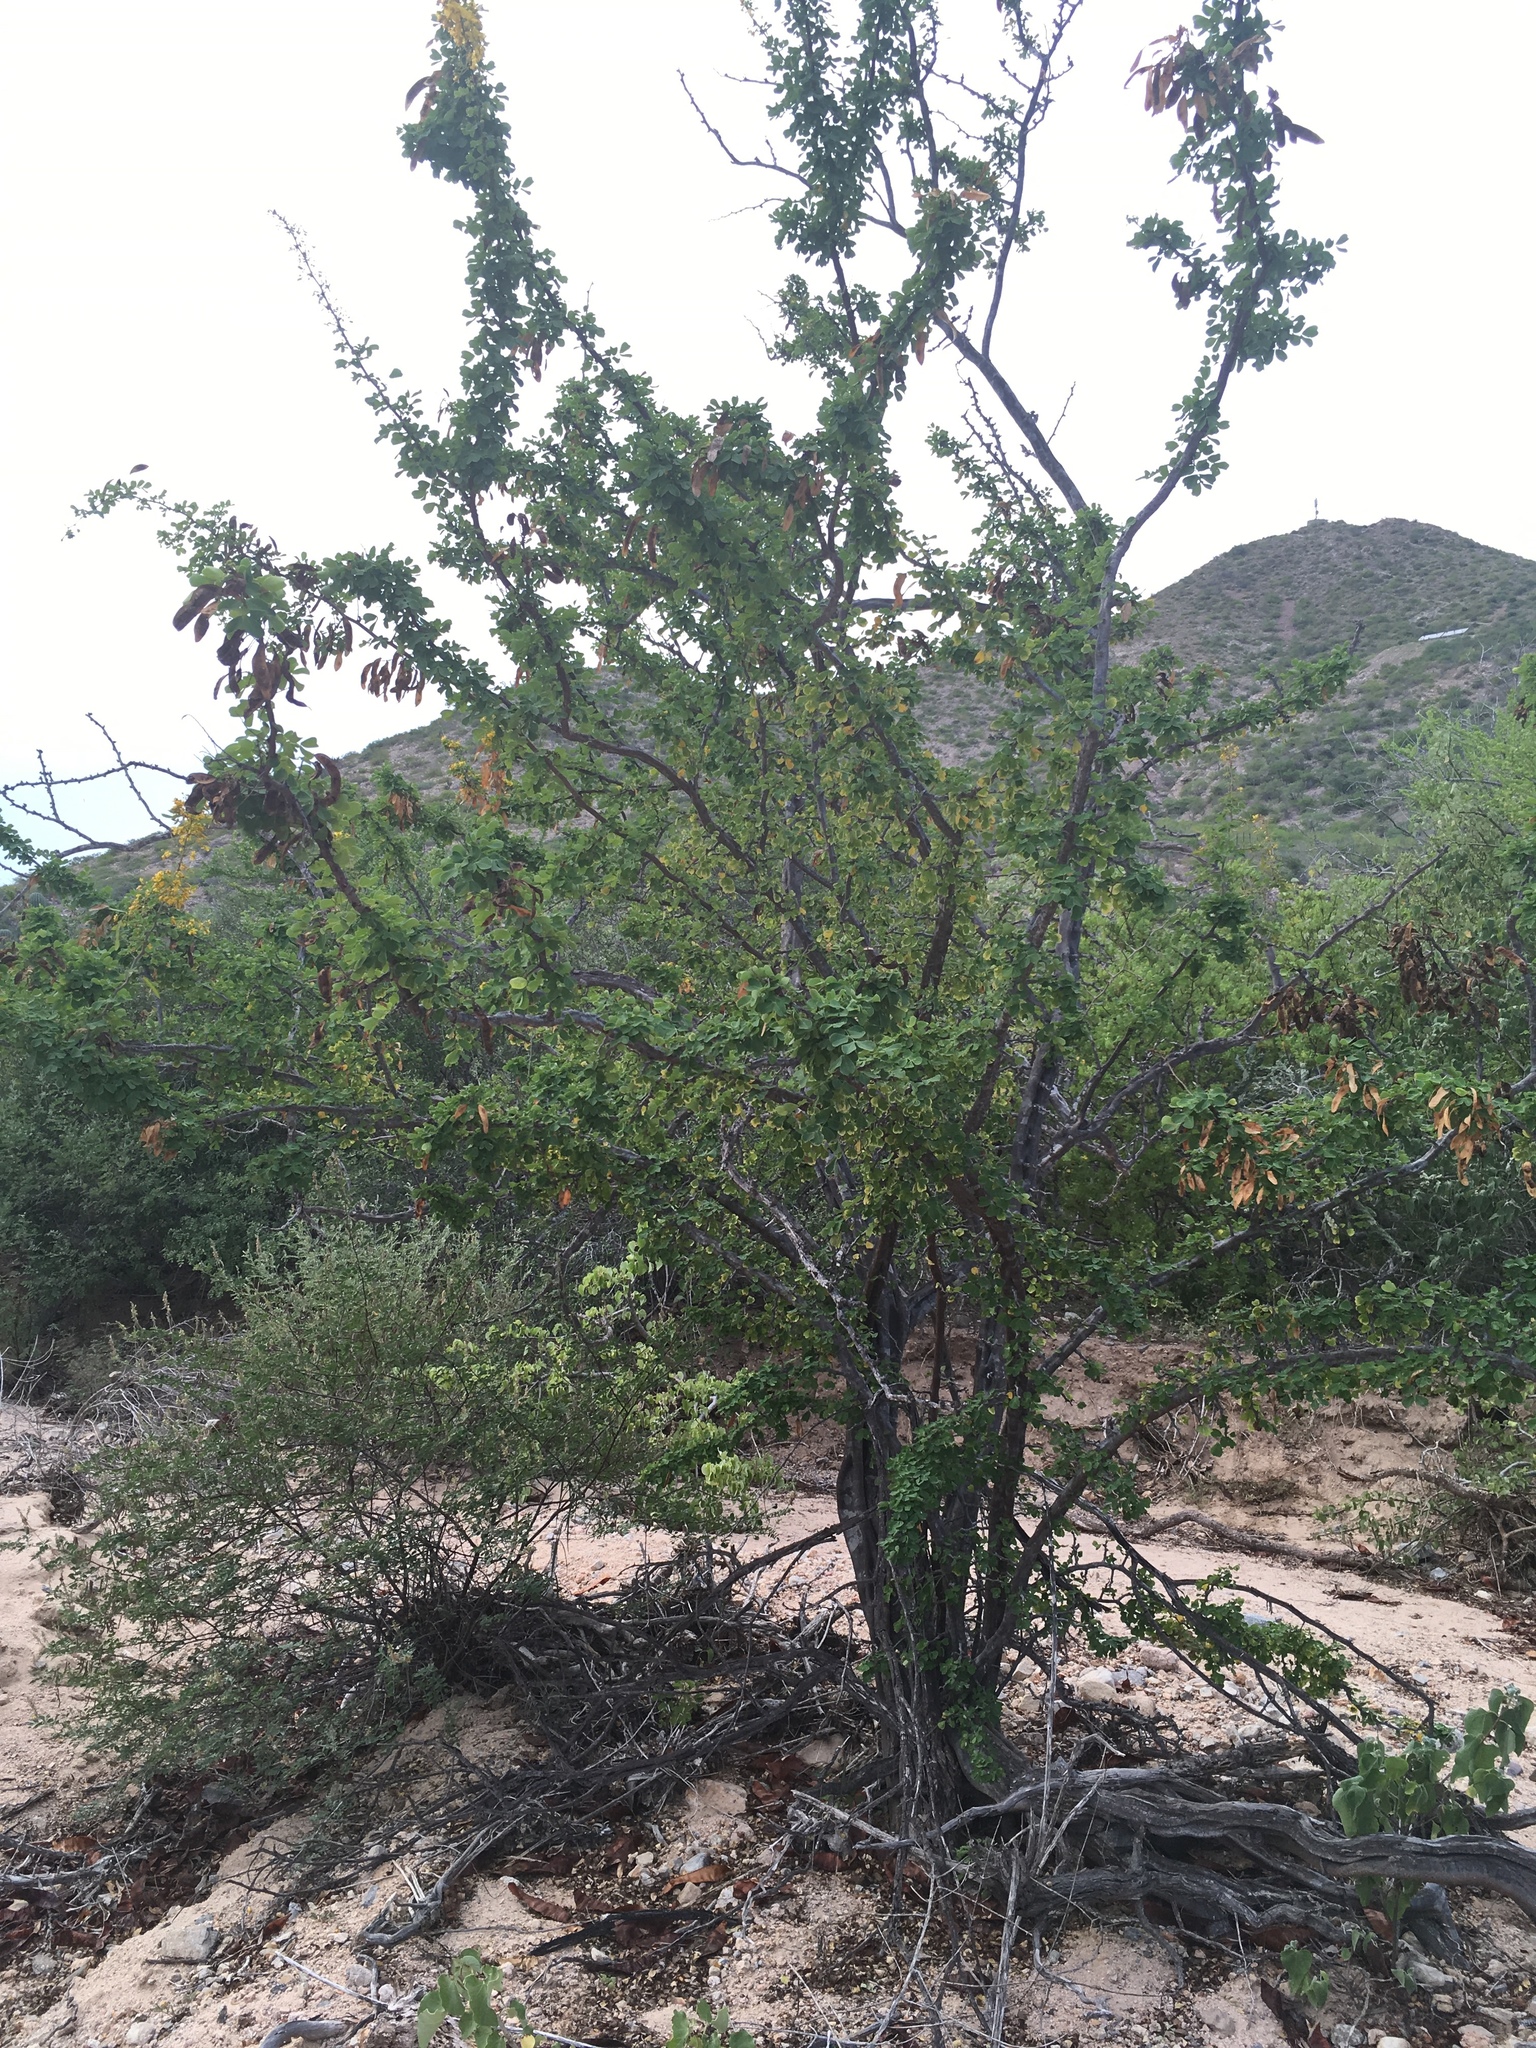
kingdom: Plantae
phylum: Tracheophyta
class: Magnoliopsida
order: Fabales
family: Fabaceae
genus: Haematoxylum
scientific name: Haematoxylum brasiletto
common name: Peachwood
